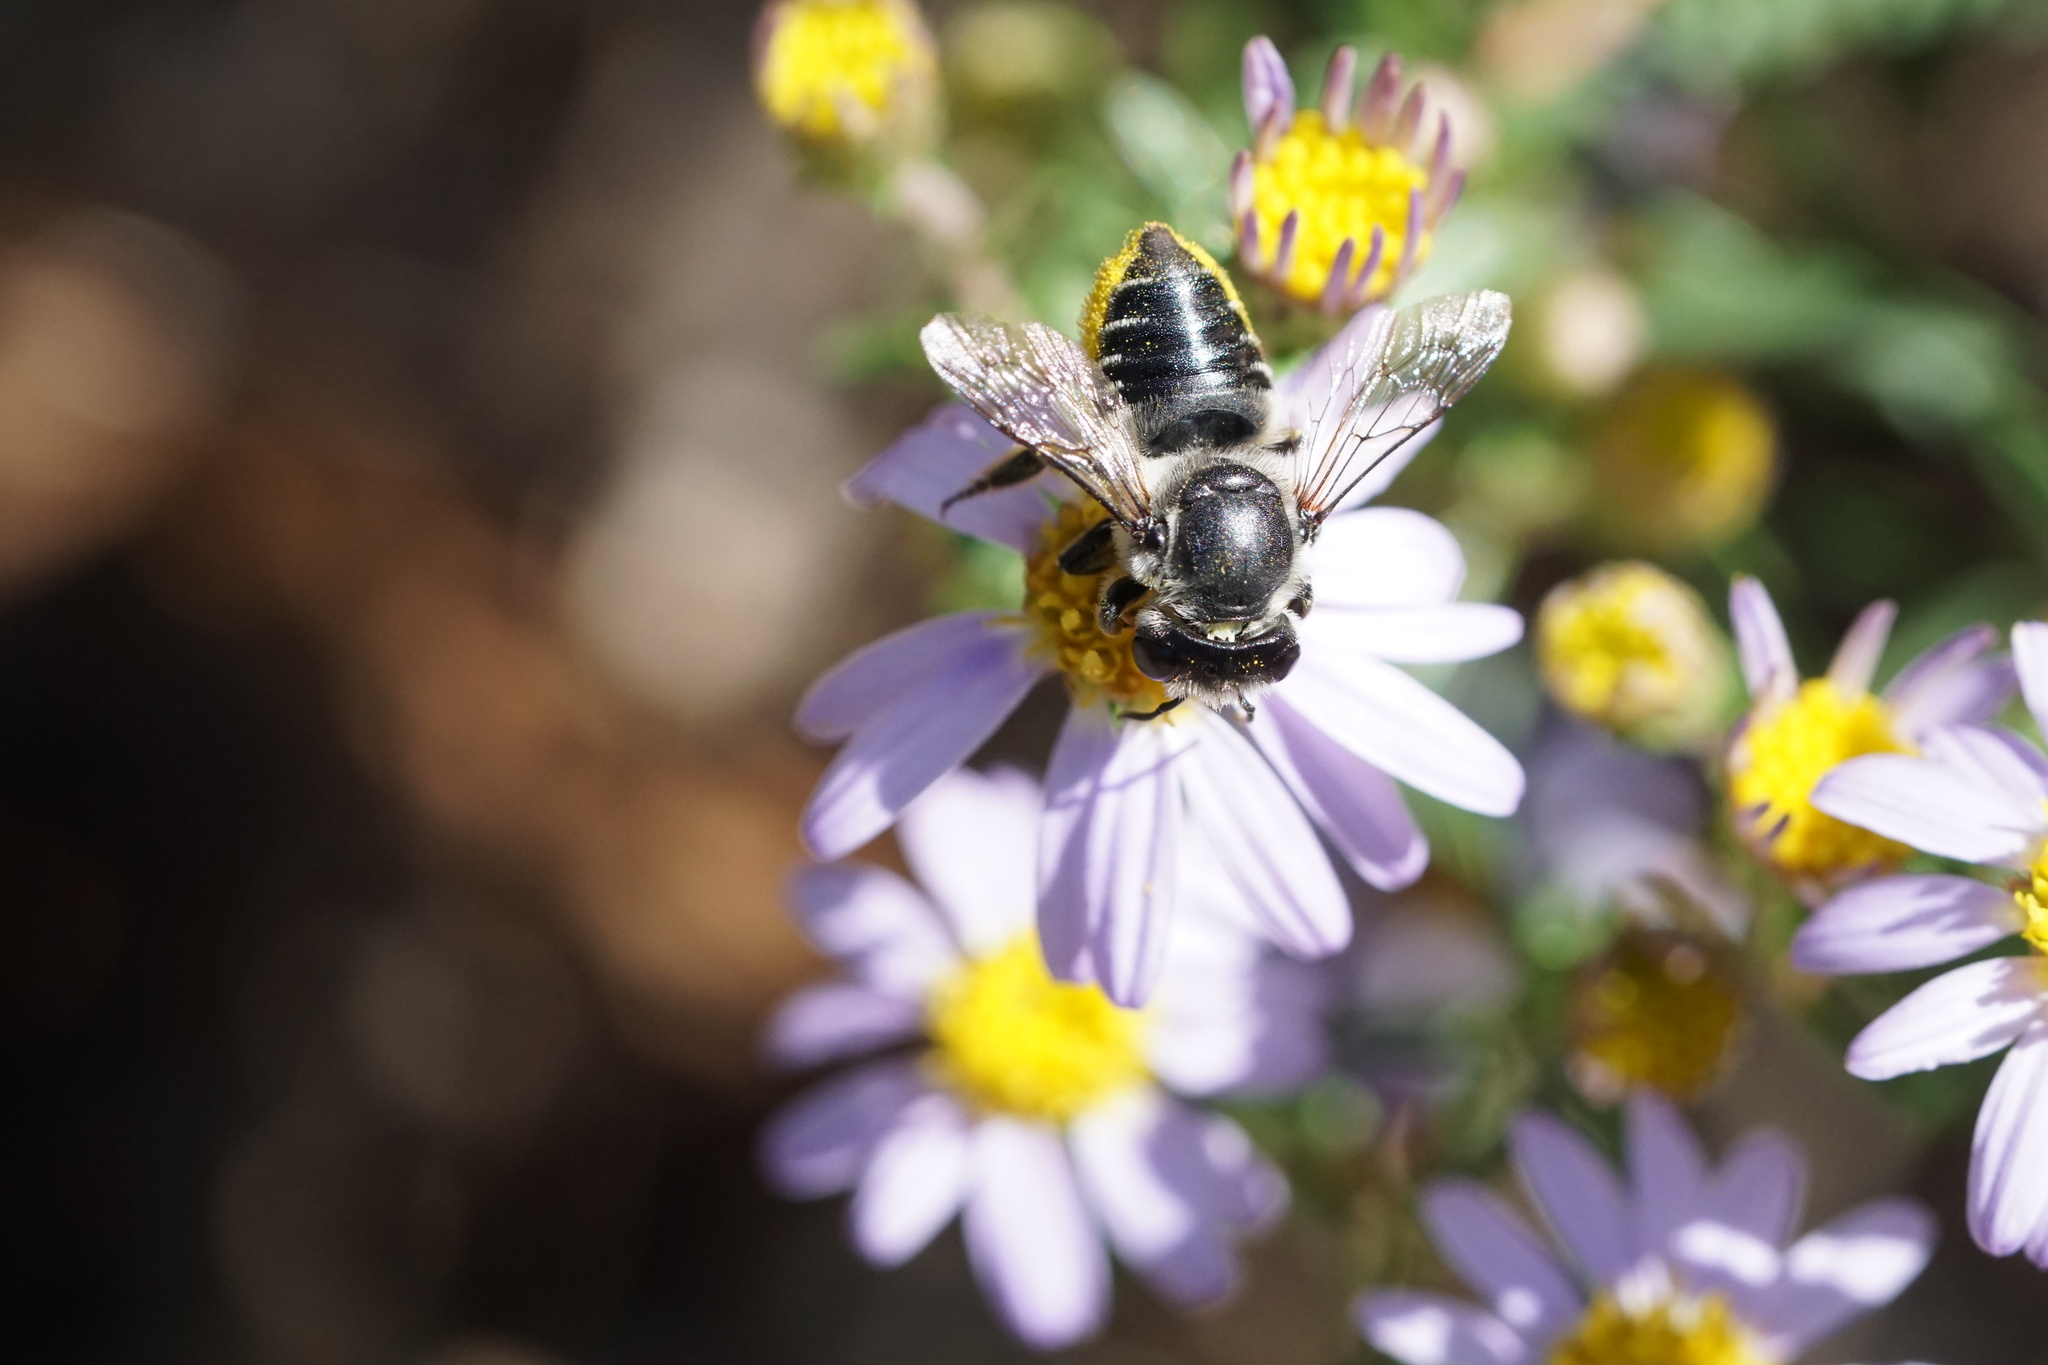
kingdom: Animalia
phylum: Arthropoda
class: Insecta
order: Hymenoptera
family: Megachilidae
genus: Megachile
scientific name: Megachile mendica
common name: Flat-tailed leafcutter
